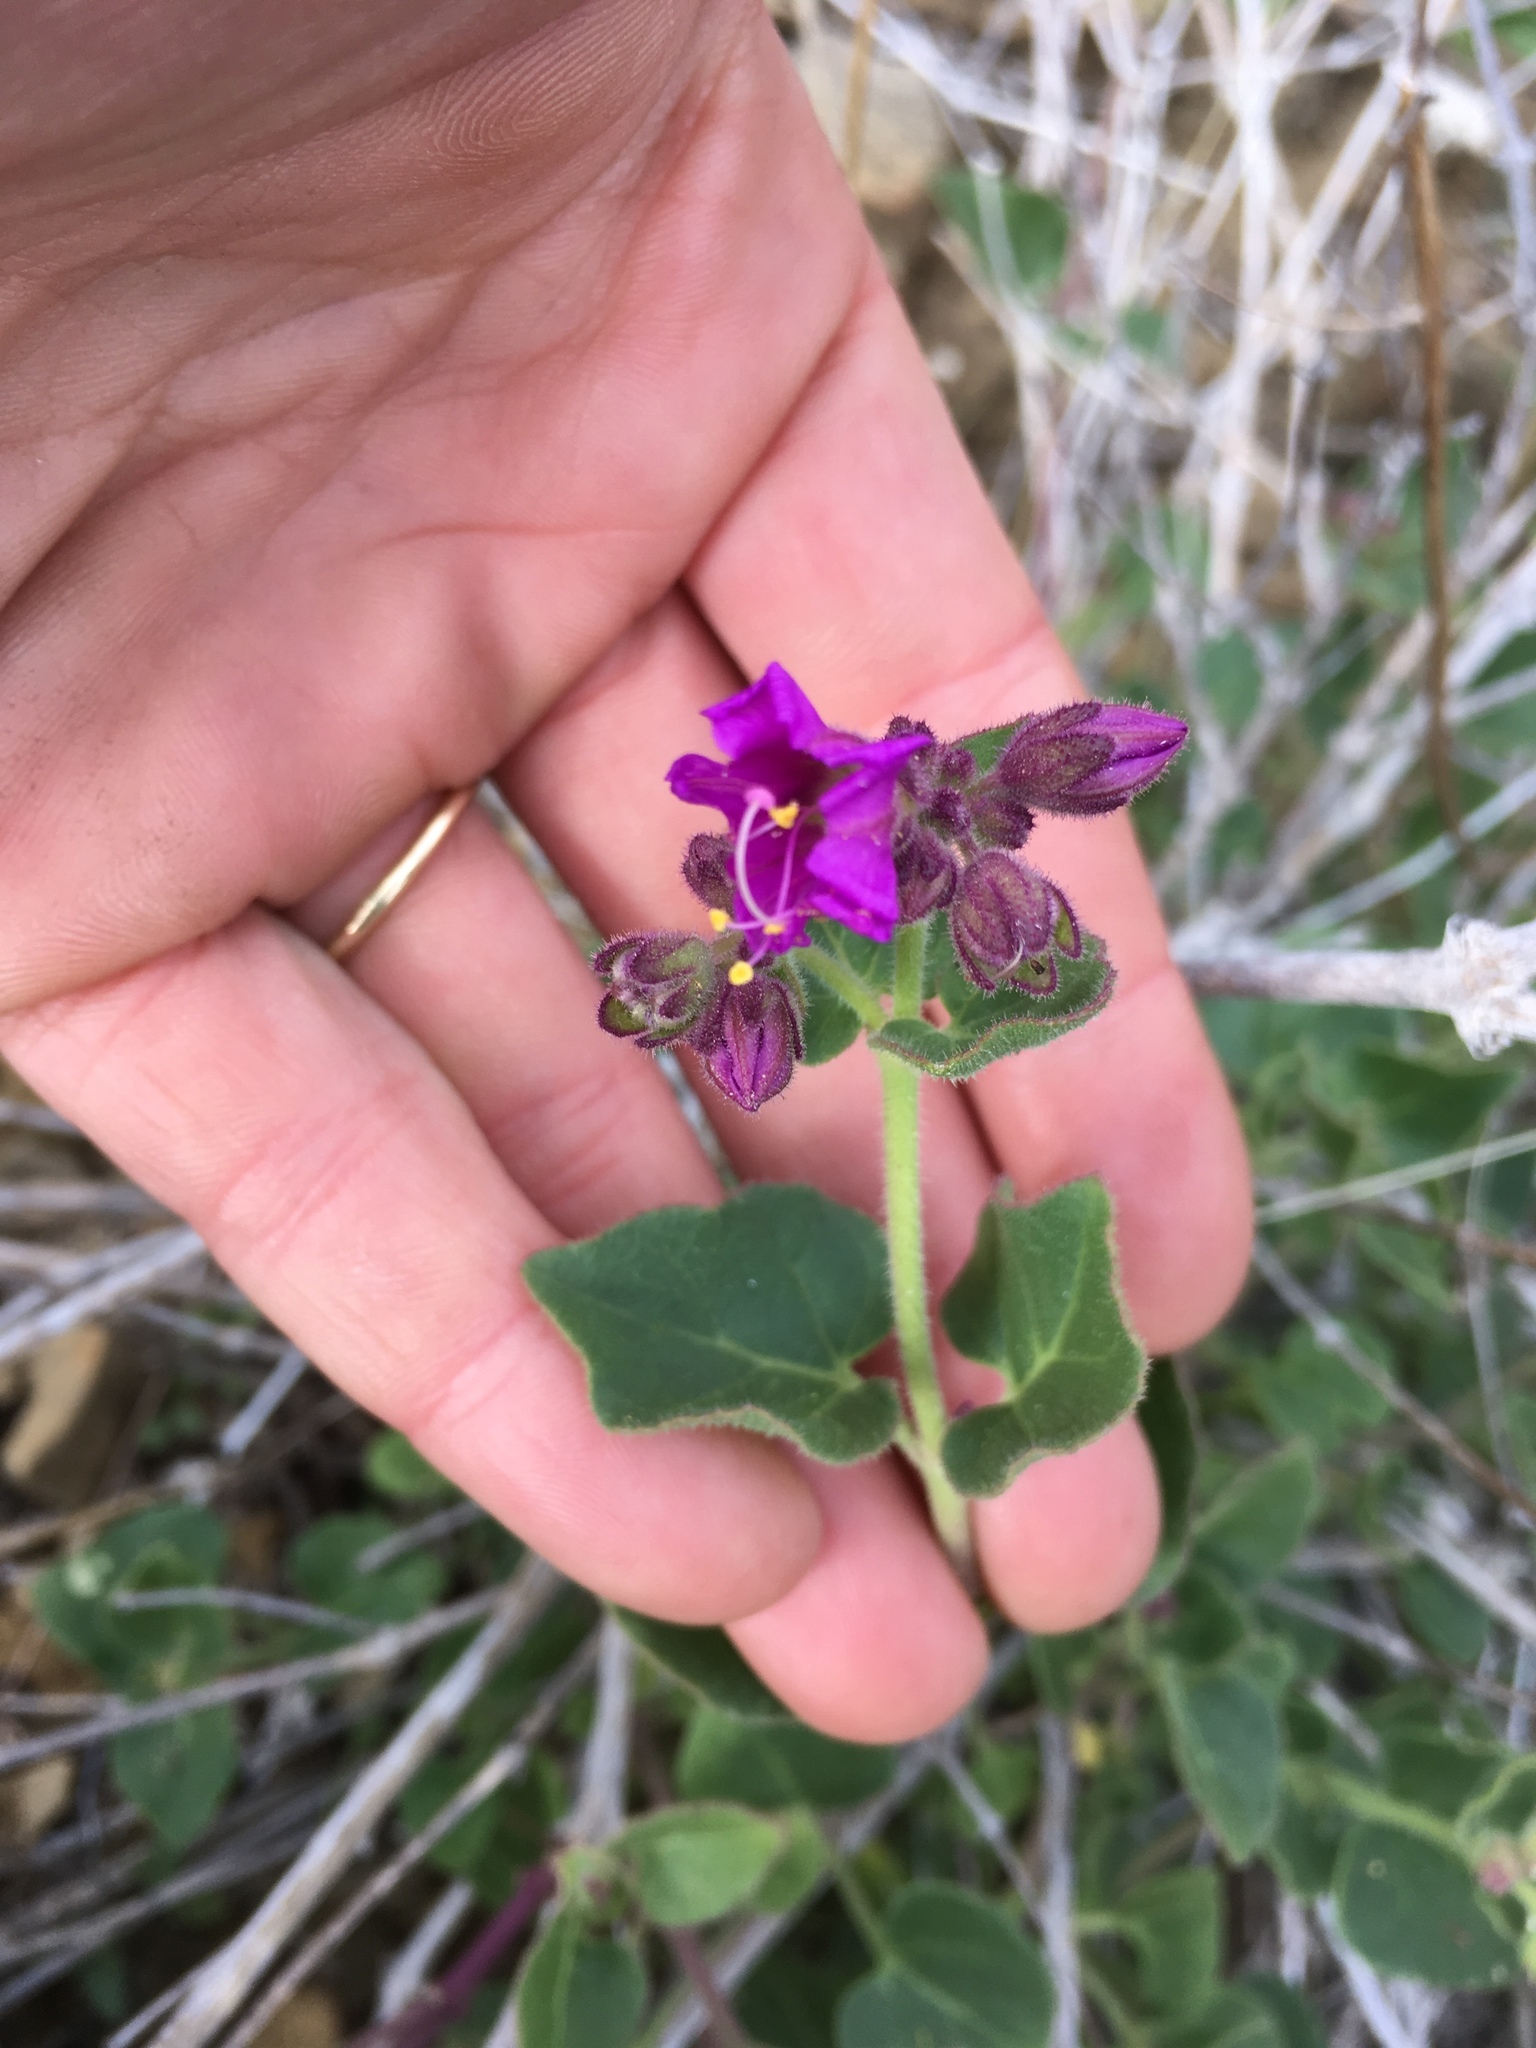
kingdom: Plantae
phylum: Tracheophyta
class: Magnoliopsida
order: Caryophyllales
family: Nyctaginaceae
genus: Mirabilis
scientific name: Mirabilis laevis
